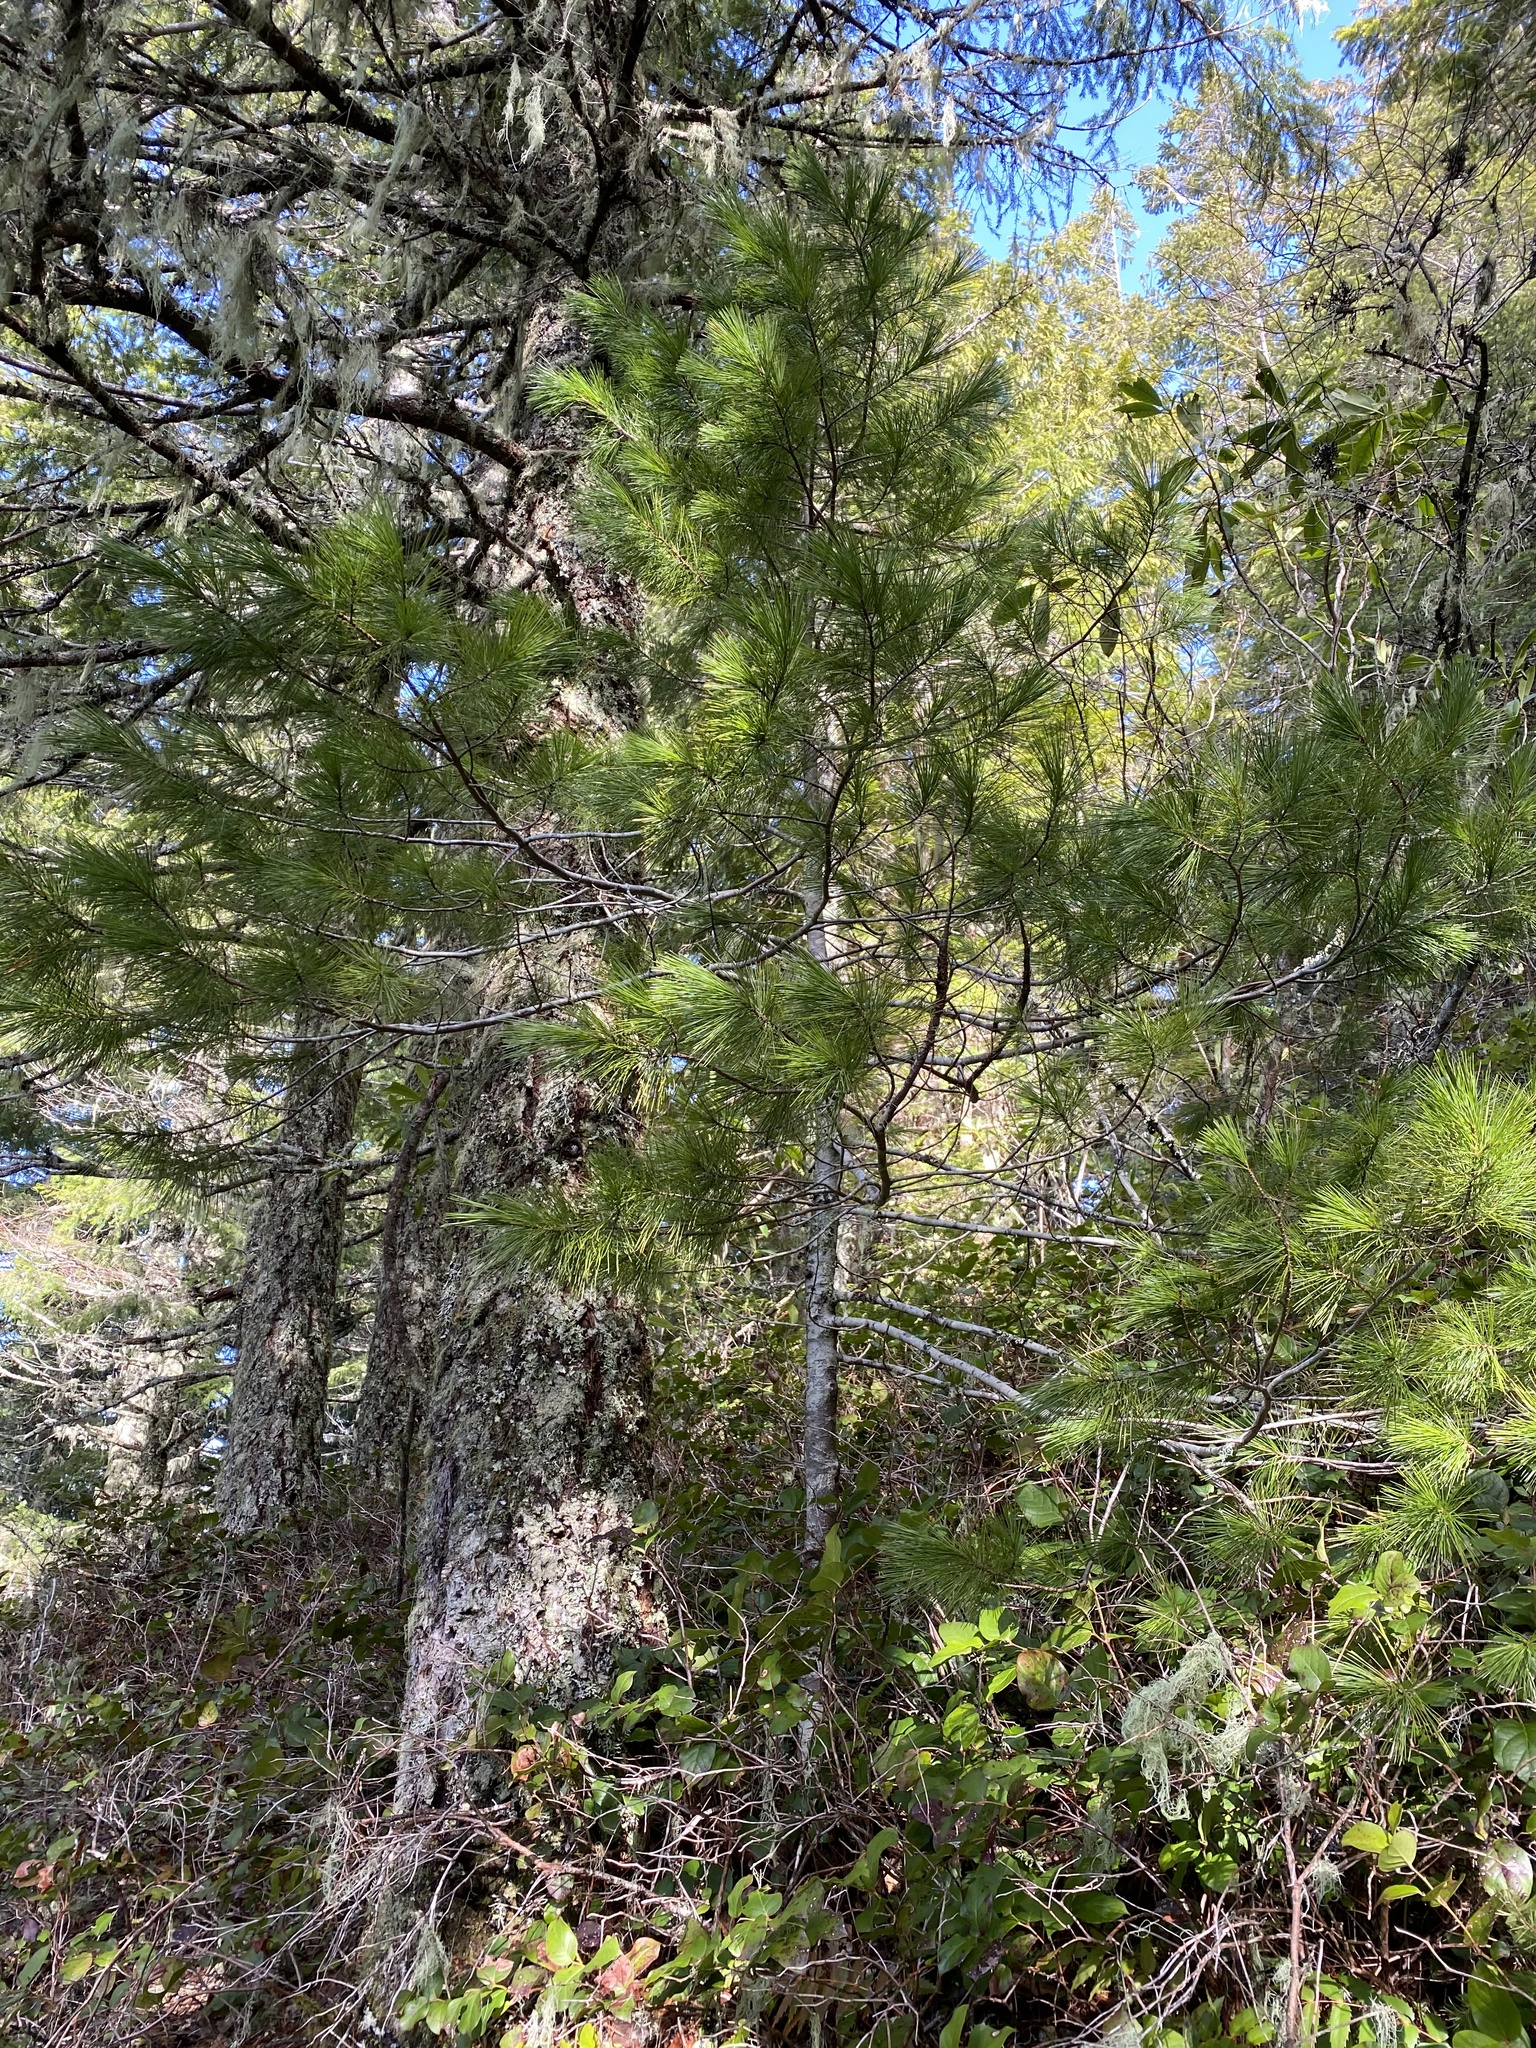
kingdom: Plantae
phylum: Tracheophyta
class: Pinopsida
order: Pinales
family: Pinaceae
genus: Pinus
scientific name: Pinus monticola
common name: Western white pine
